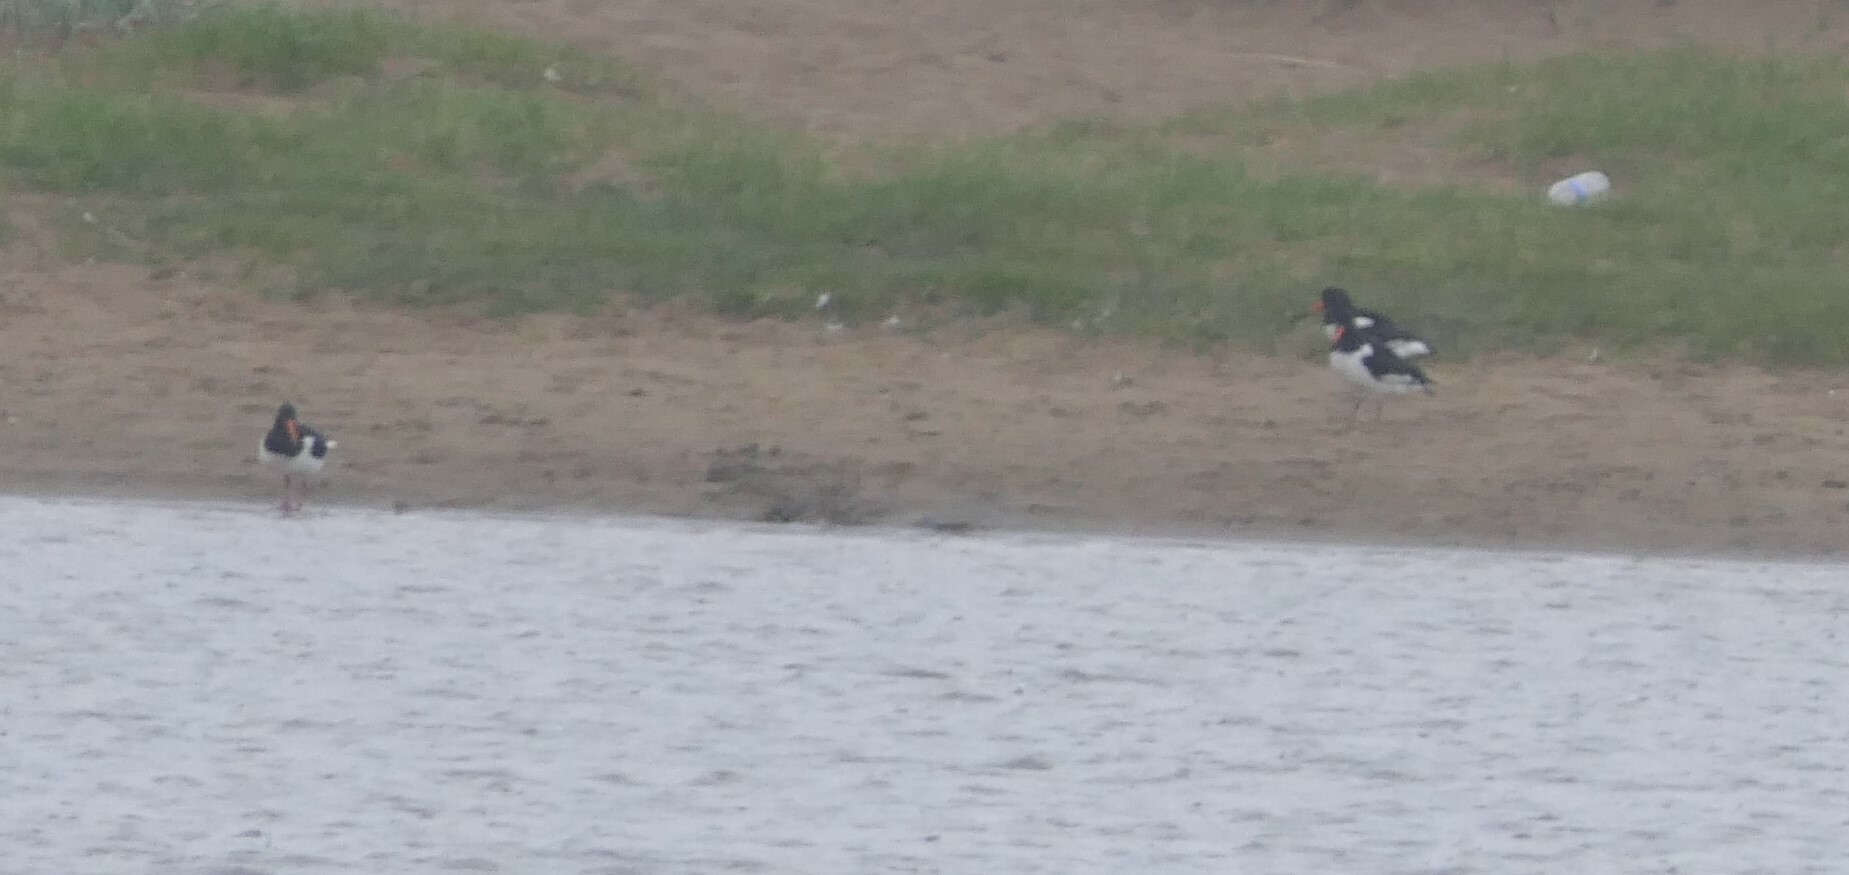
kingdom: Animalia
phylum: Chordata
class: Aves
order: Charadriiformes
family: Haematopodidae
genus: Haematopus
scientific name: Haematopus ostralegus
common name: Eurasian oystercatcher
